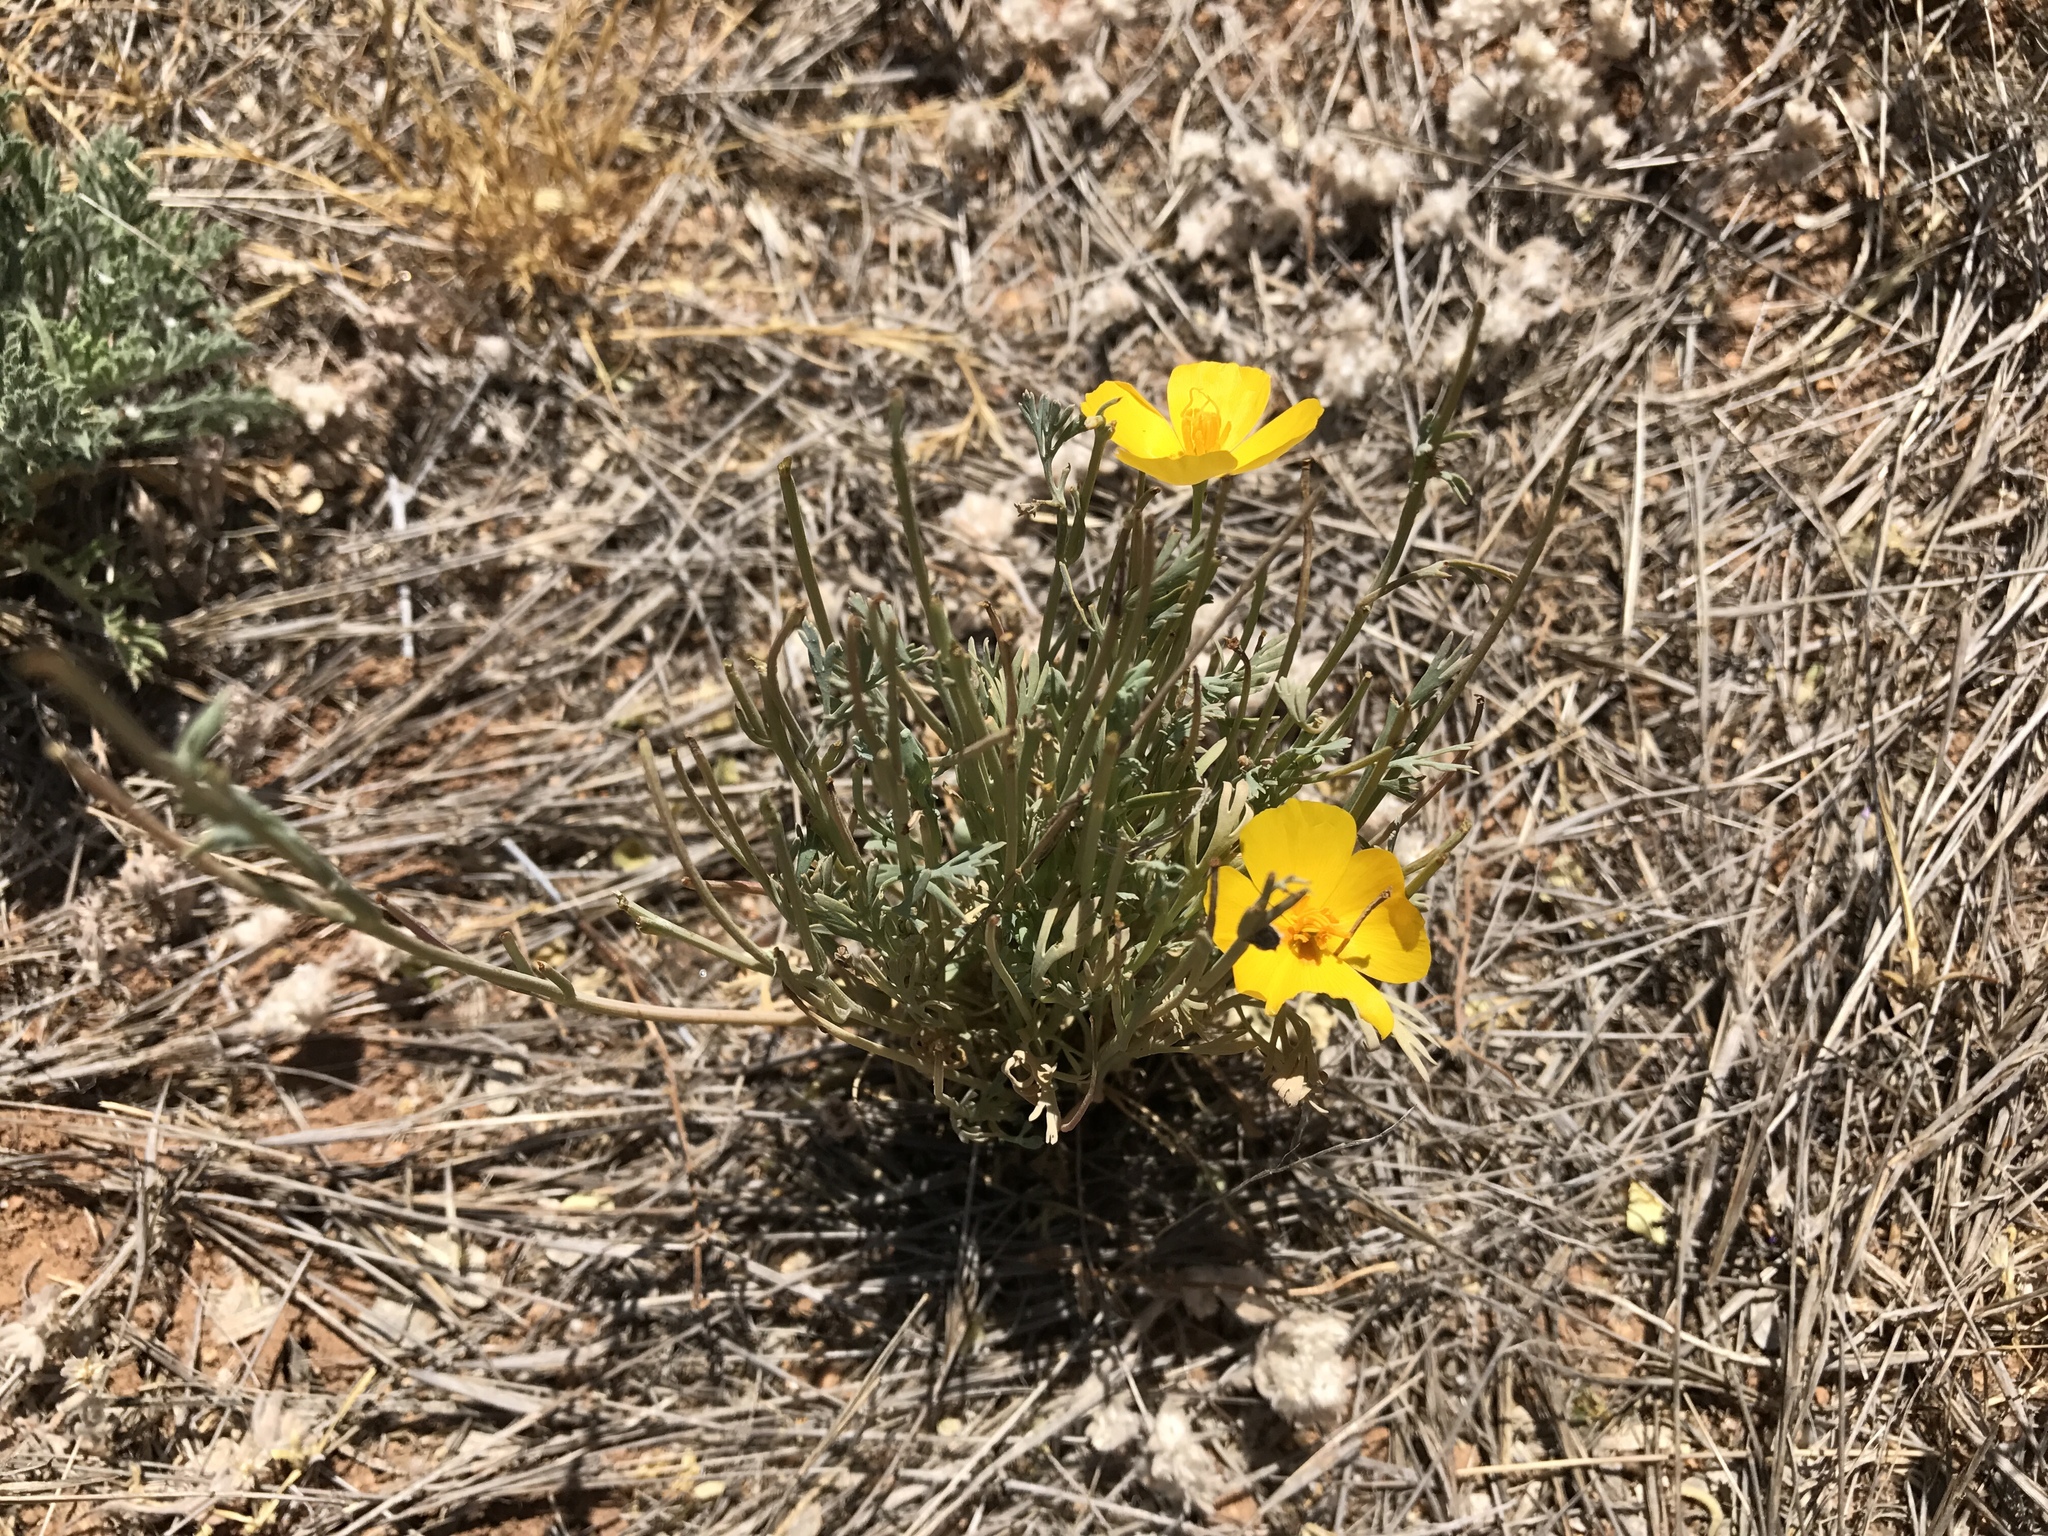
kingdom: Plantae
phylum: Tracheophyta
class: Magnoliopsida
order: Ranunculales
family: Papaveraceae
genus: Eschscholzia
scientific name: Eschscholzia californica
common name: California poppy
